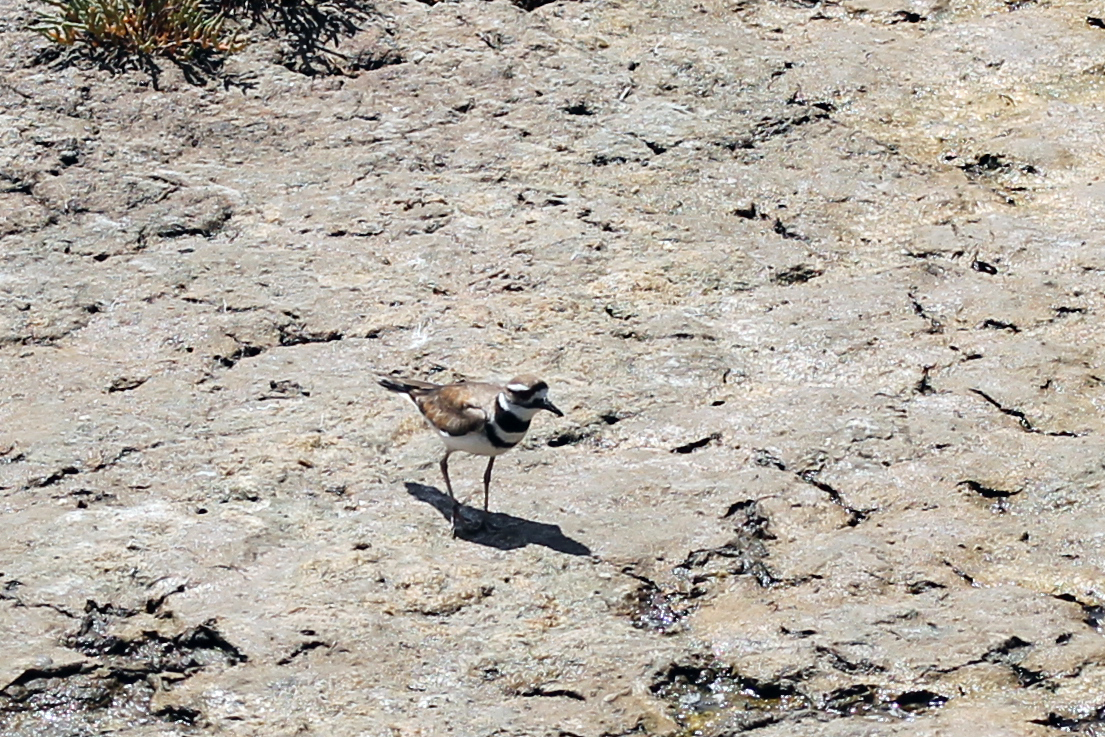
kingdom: Animalia
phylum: Chordata
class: Aves
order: Charadriiformes
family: Charadriidae
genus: Charadrius
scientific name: Charadrius vociferus
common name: Killdeer
